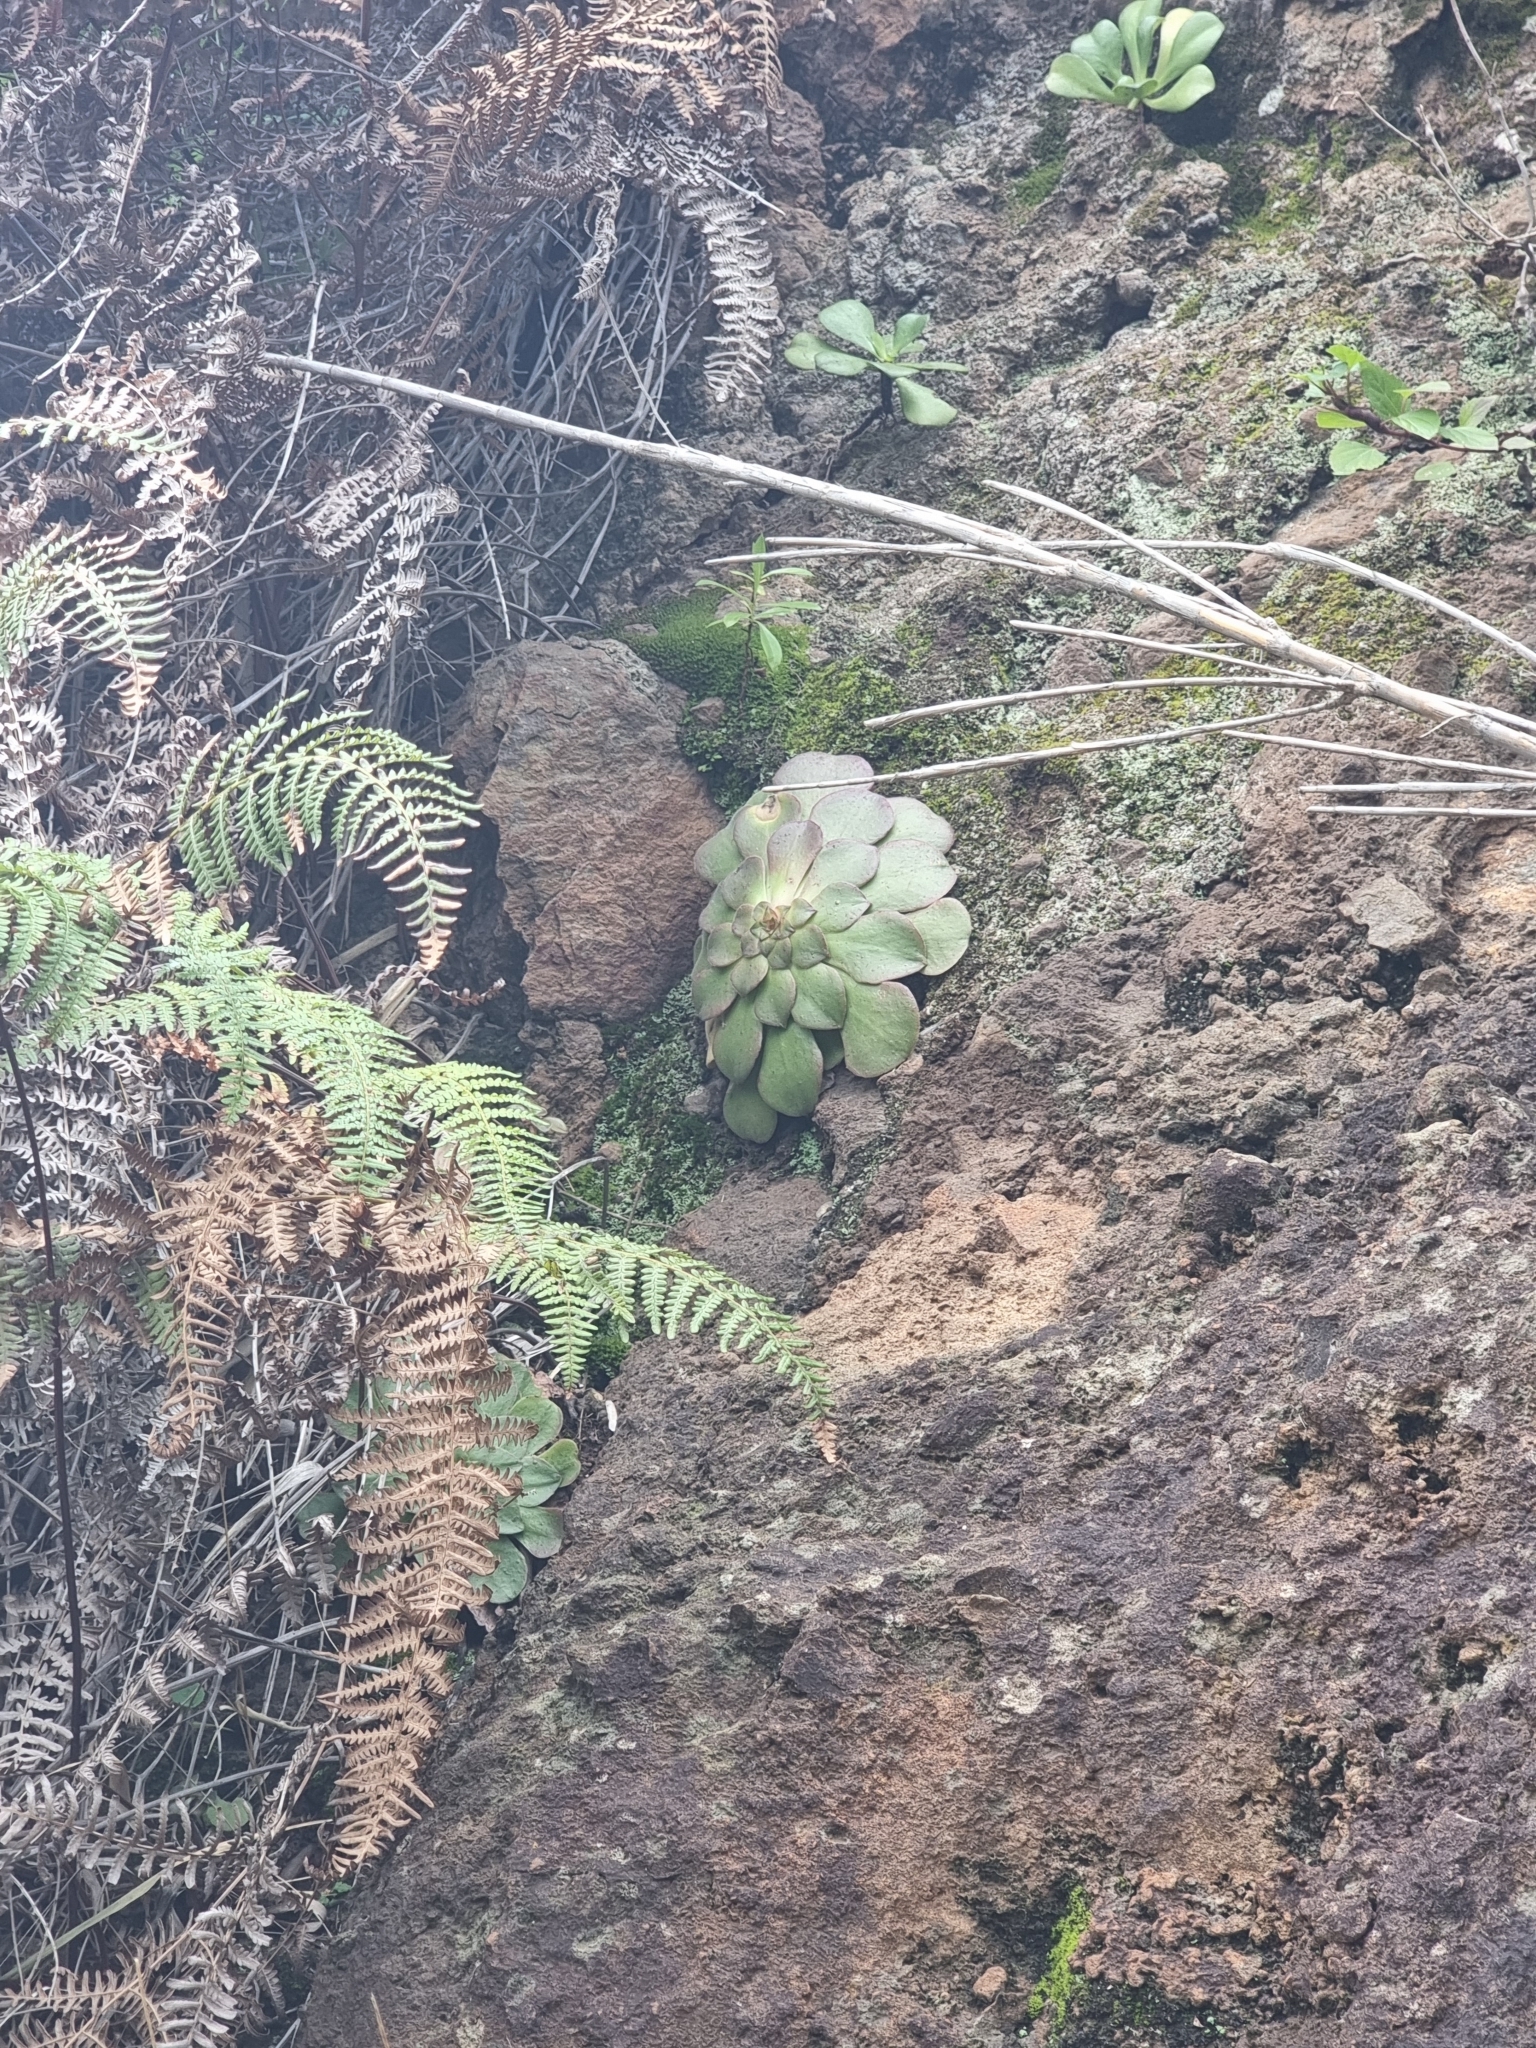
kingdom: Plantae
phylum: Tracheophyta
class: Magnoliopsida
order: Saxifragales
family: Crassulaceae
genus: Aeonium
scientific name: Aeonium glandulosum
